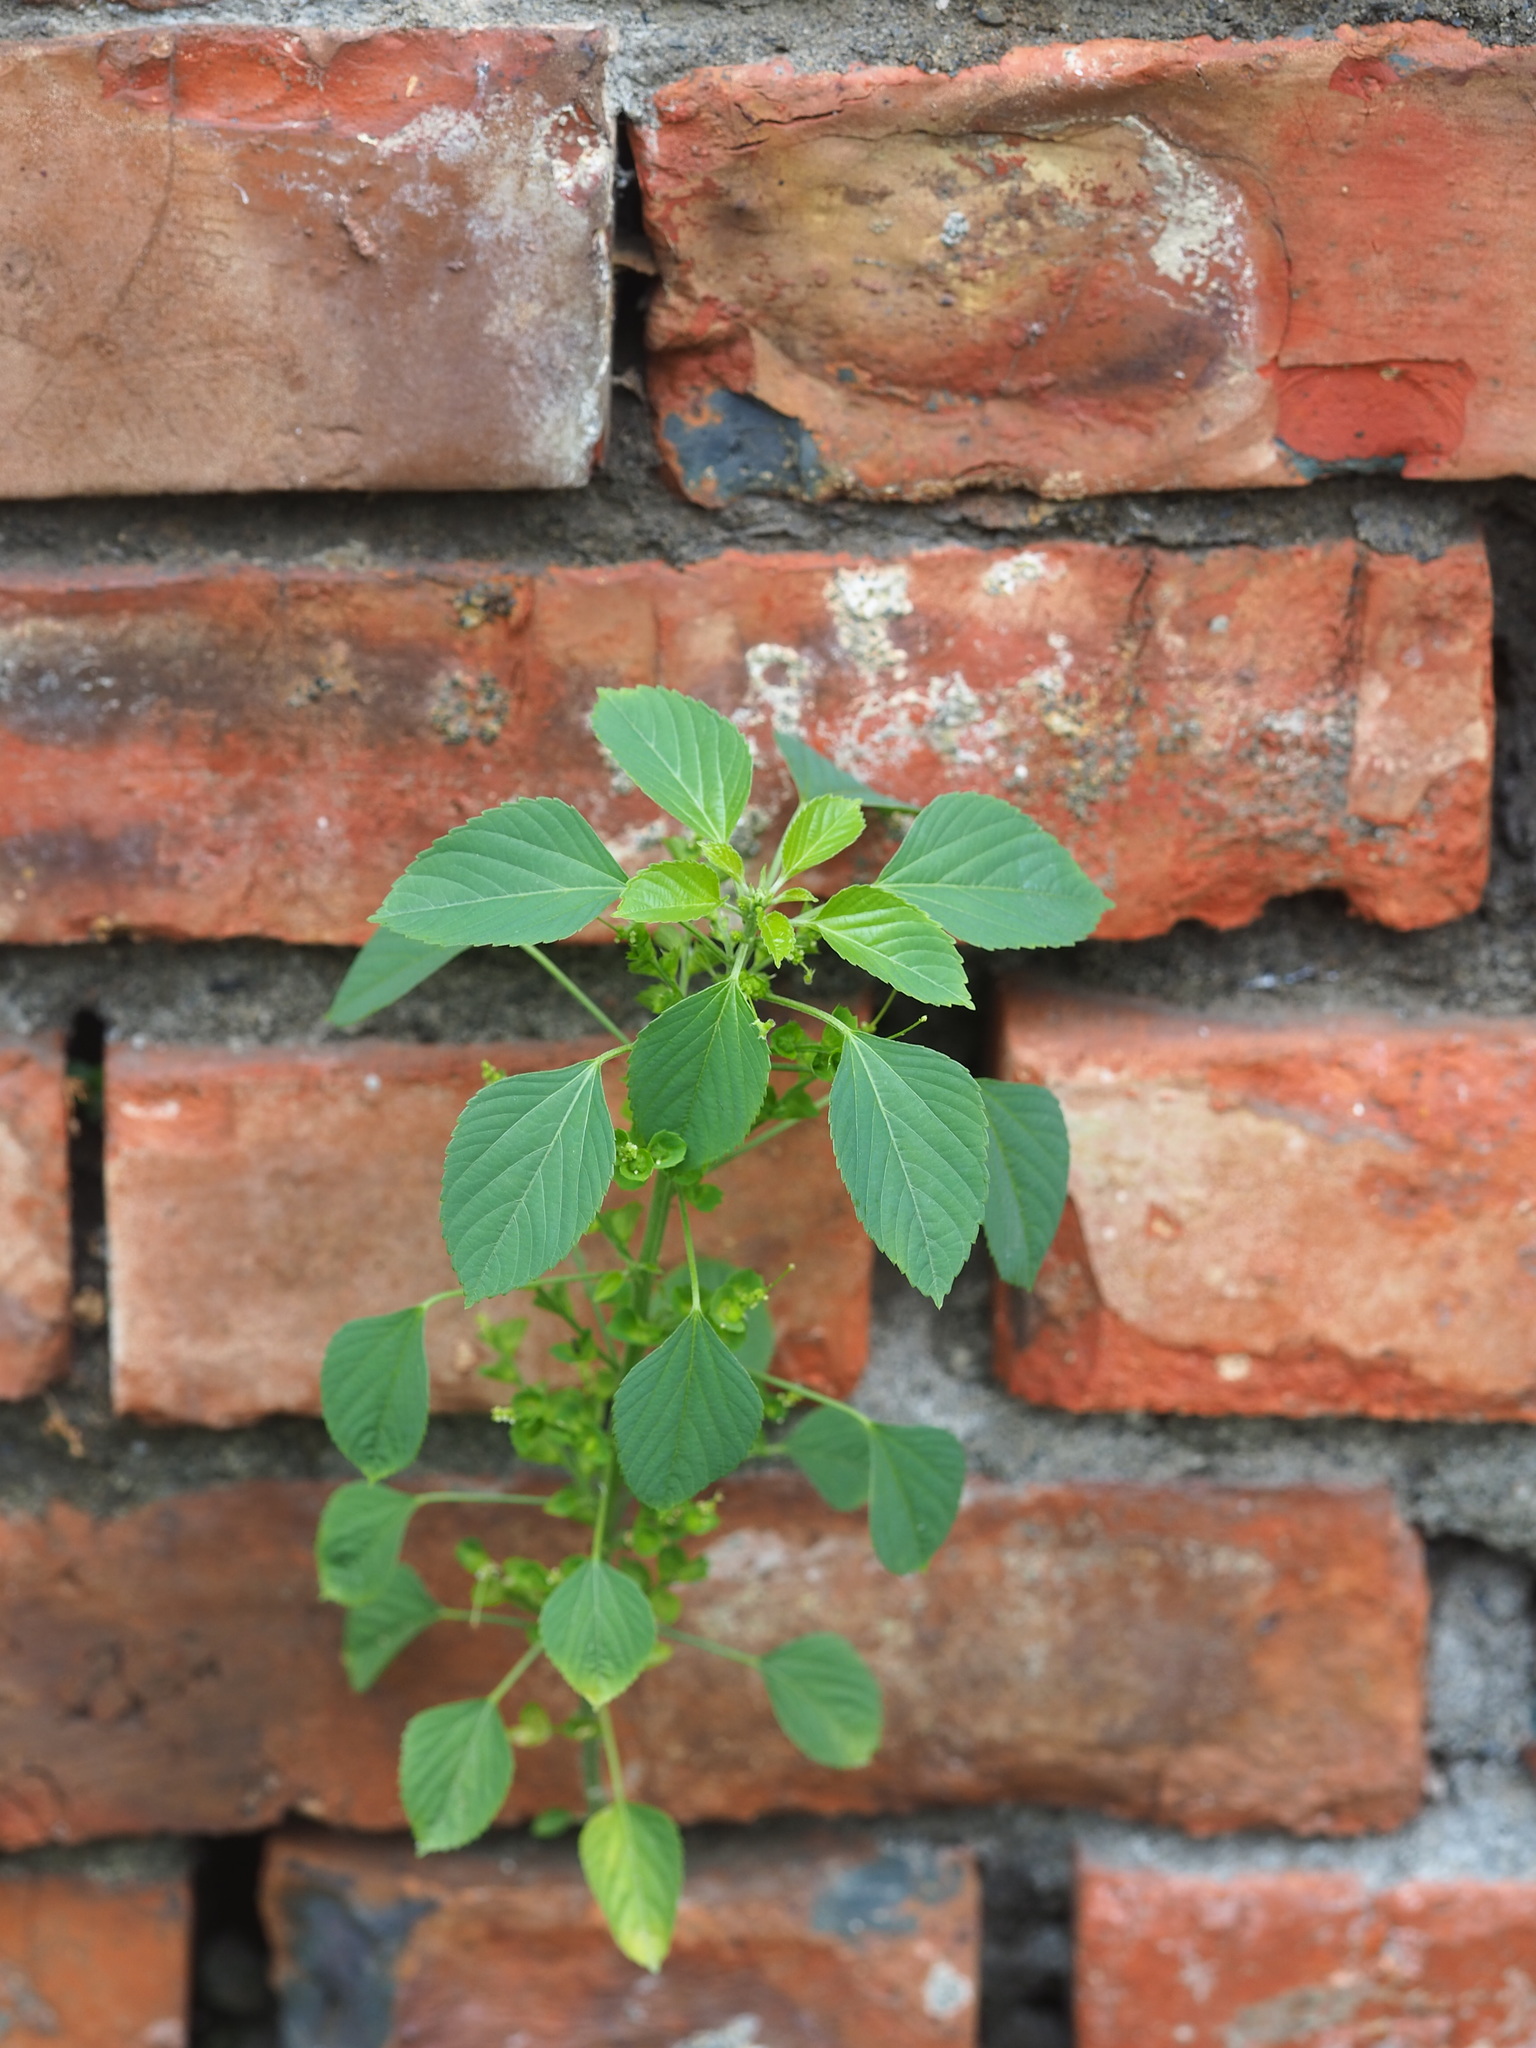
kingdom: Plantae
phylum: Tracheophyta
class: Magnoliopsida
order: Malpighiales
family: Euphorbiaceae
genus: Acalypha
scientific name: Acalypha indica
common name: Indian acalypha
